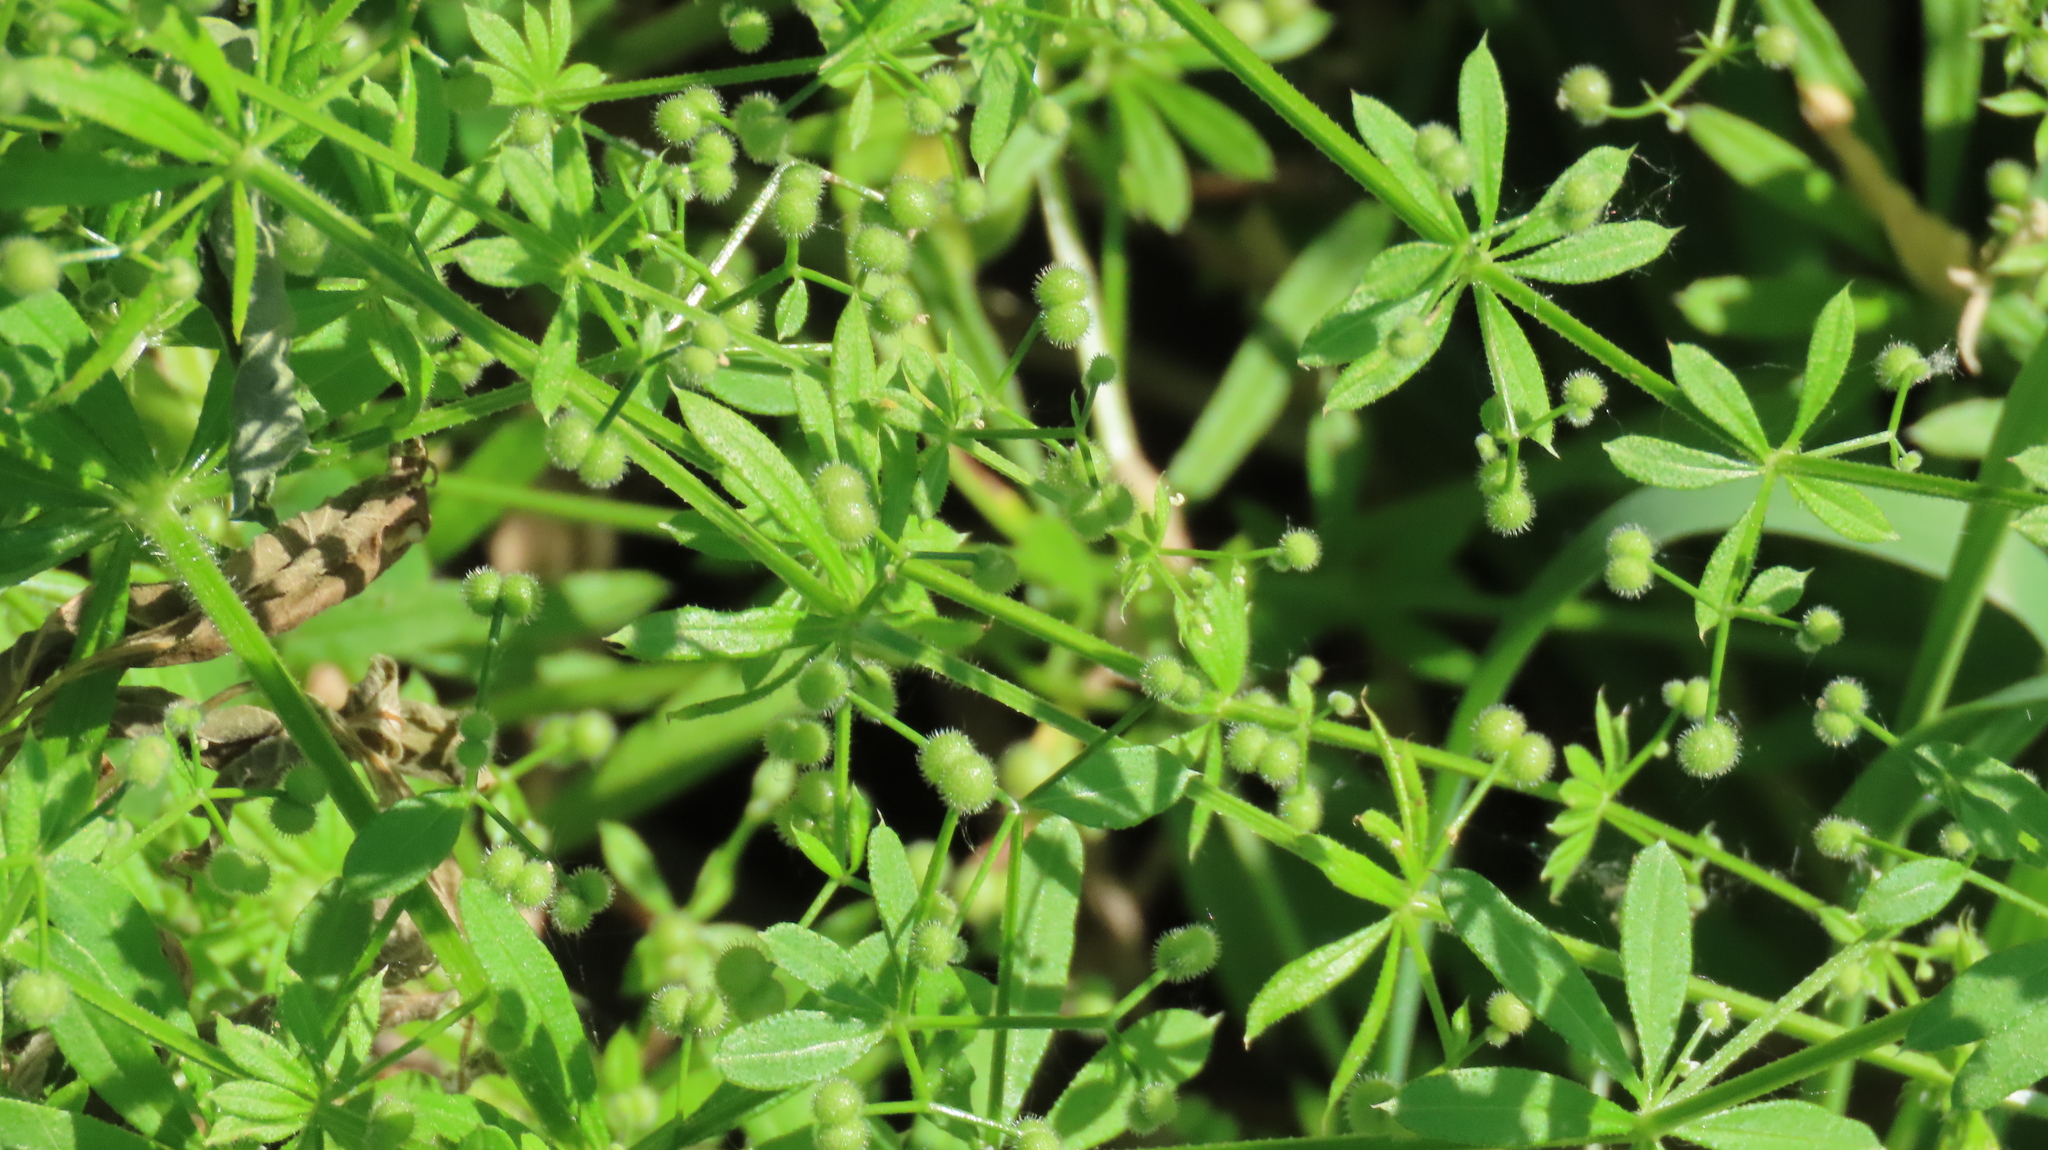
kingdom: Plantae
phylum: Tracheophyta
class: Magnoliopsida
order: Gentianales
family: Rubiaceae
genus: Galium
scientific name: Galium aparine
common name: Cleavers
